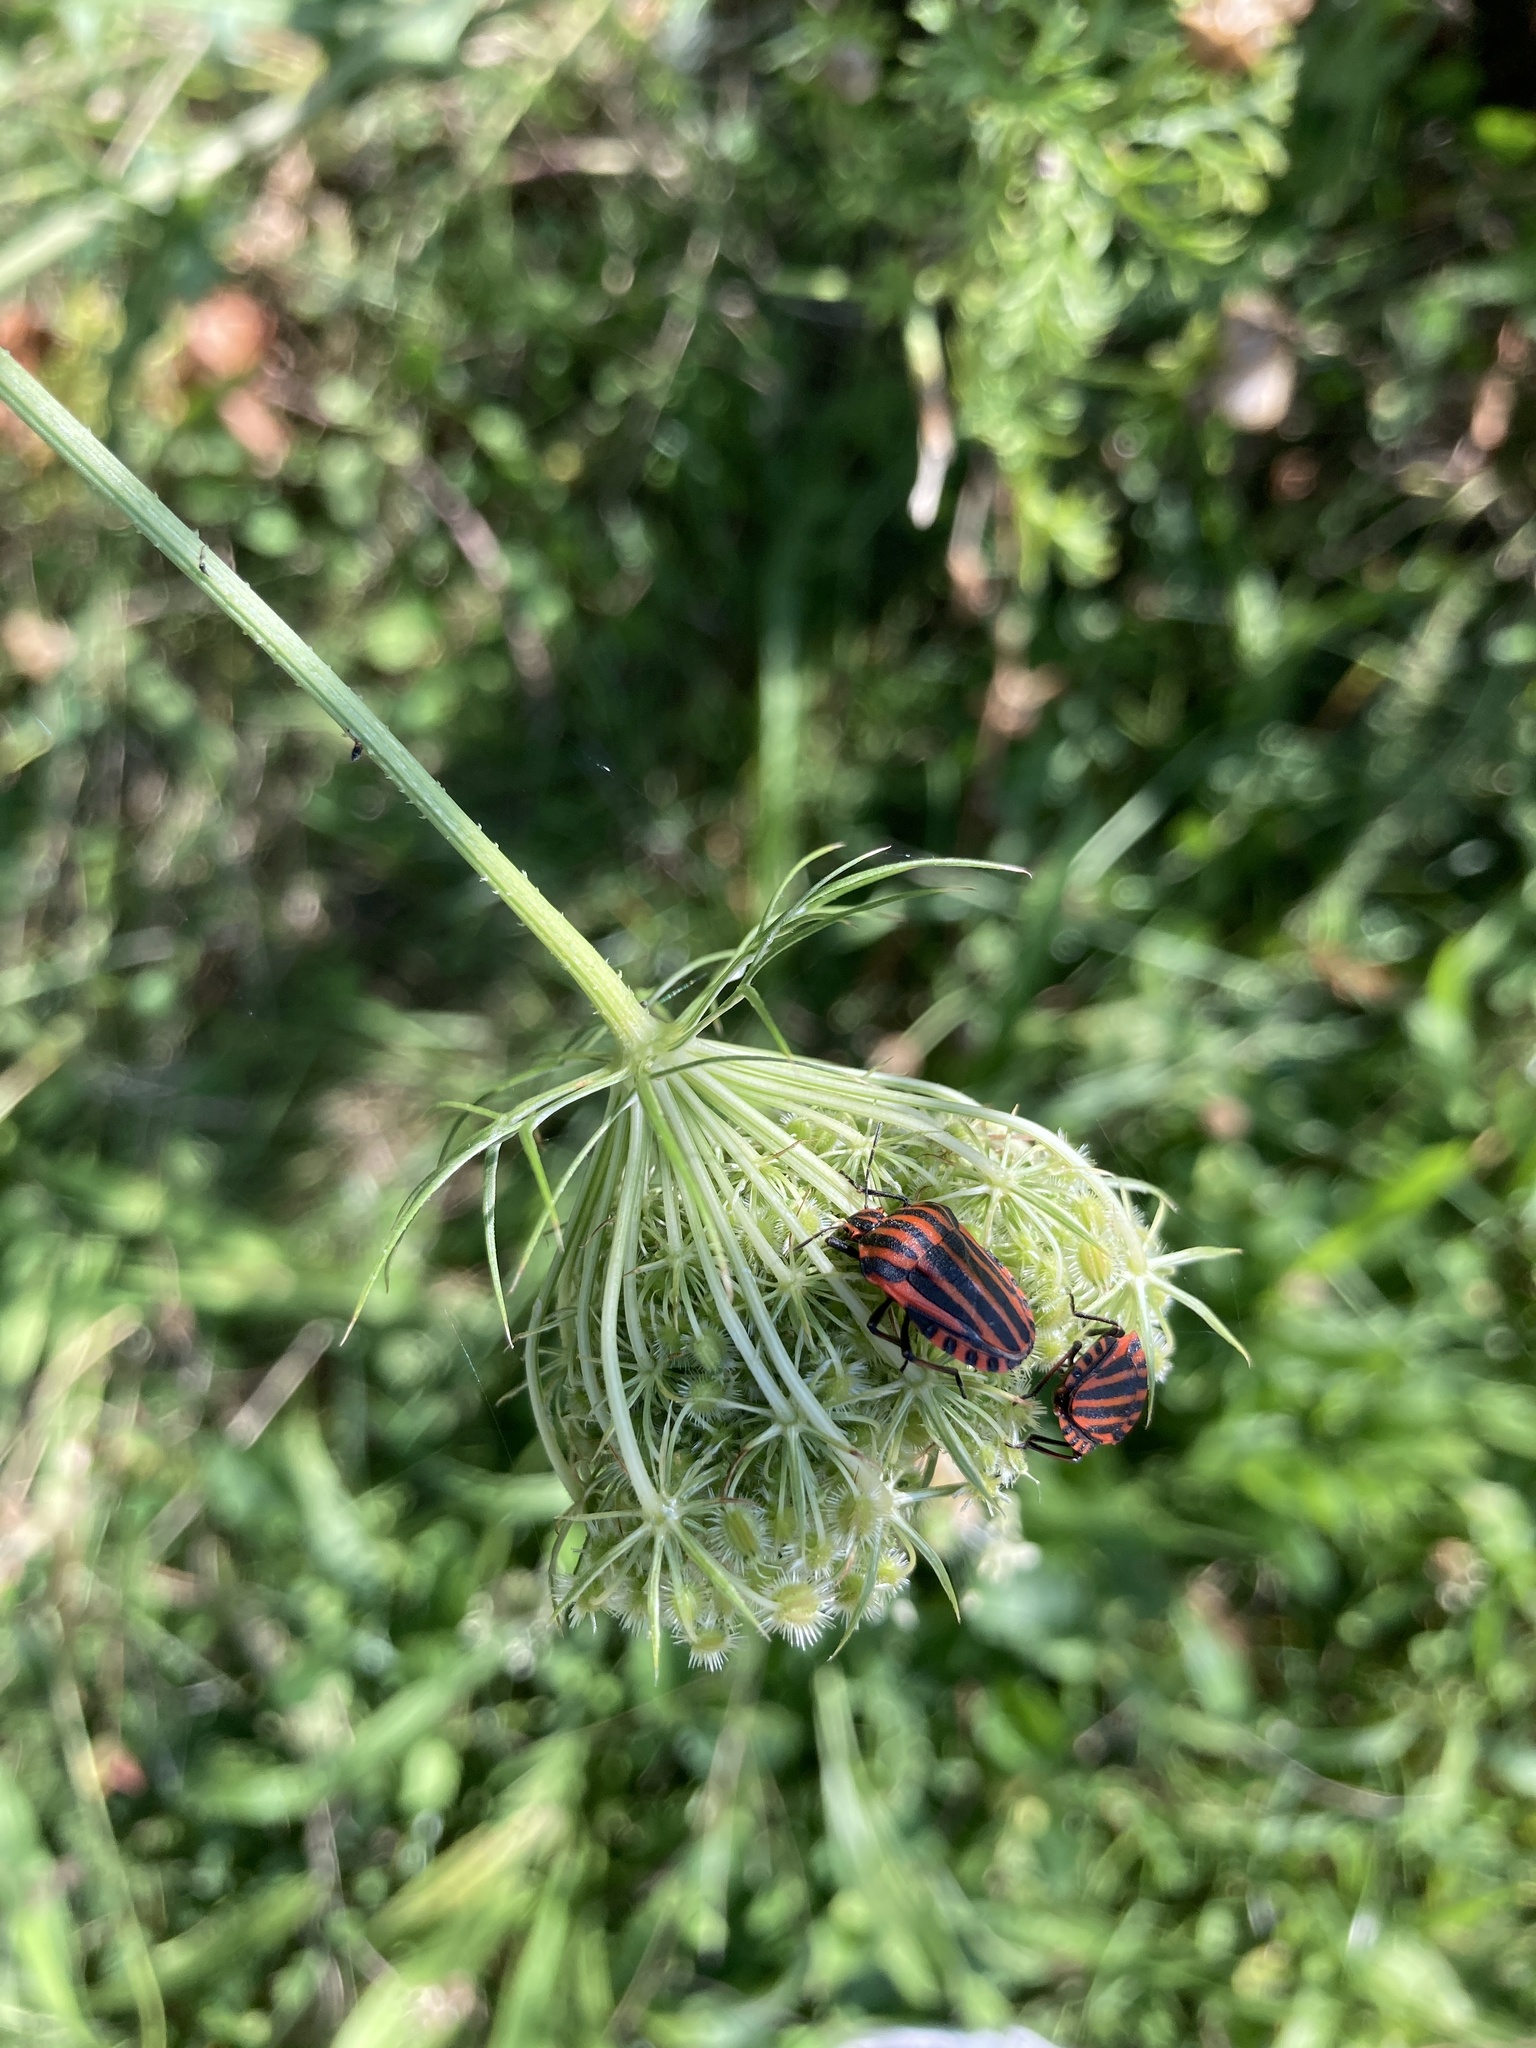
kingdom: Animalia
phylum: Arthropoda
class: Insecta
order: Hemiptera
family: Pentatomidae
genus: Graphosoma
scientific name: Graphosoma italicum
